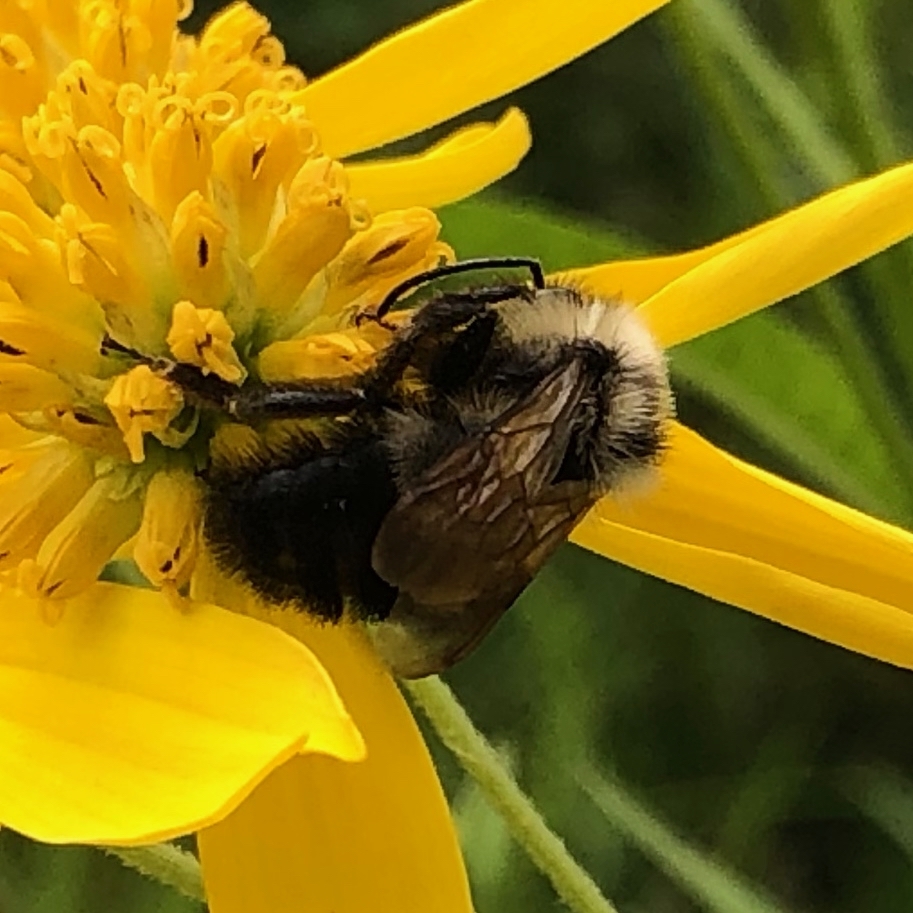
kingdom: Animalia
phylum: Arthropoda
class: Insecta
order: Hymenoptera
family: Apidae
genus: Bombus
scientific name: Bombus citrinus
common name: Lemon cuckoo bumble bee
